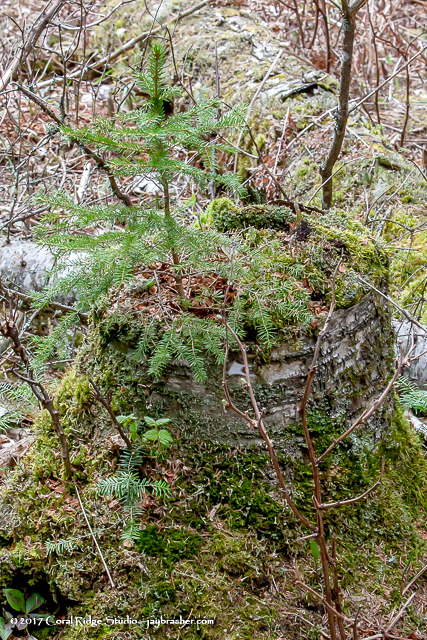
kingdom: Plantae
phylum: Tracheophyta
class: Pinopsida
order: Pinales
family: Pinaceae
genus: Abies
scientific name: Abies balsamea
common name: Balsam fir
